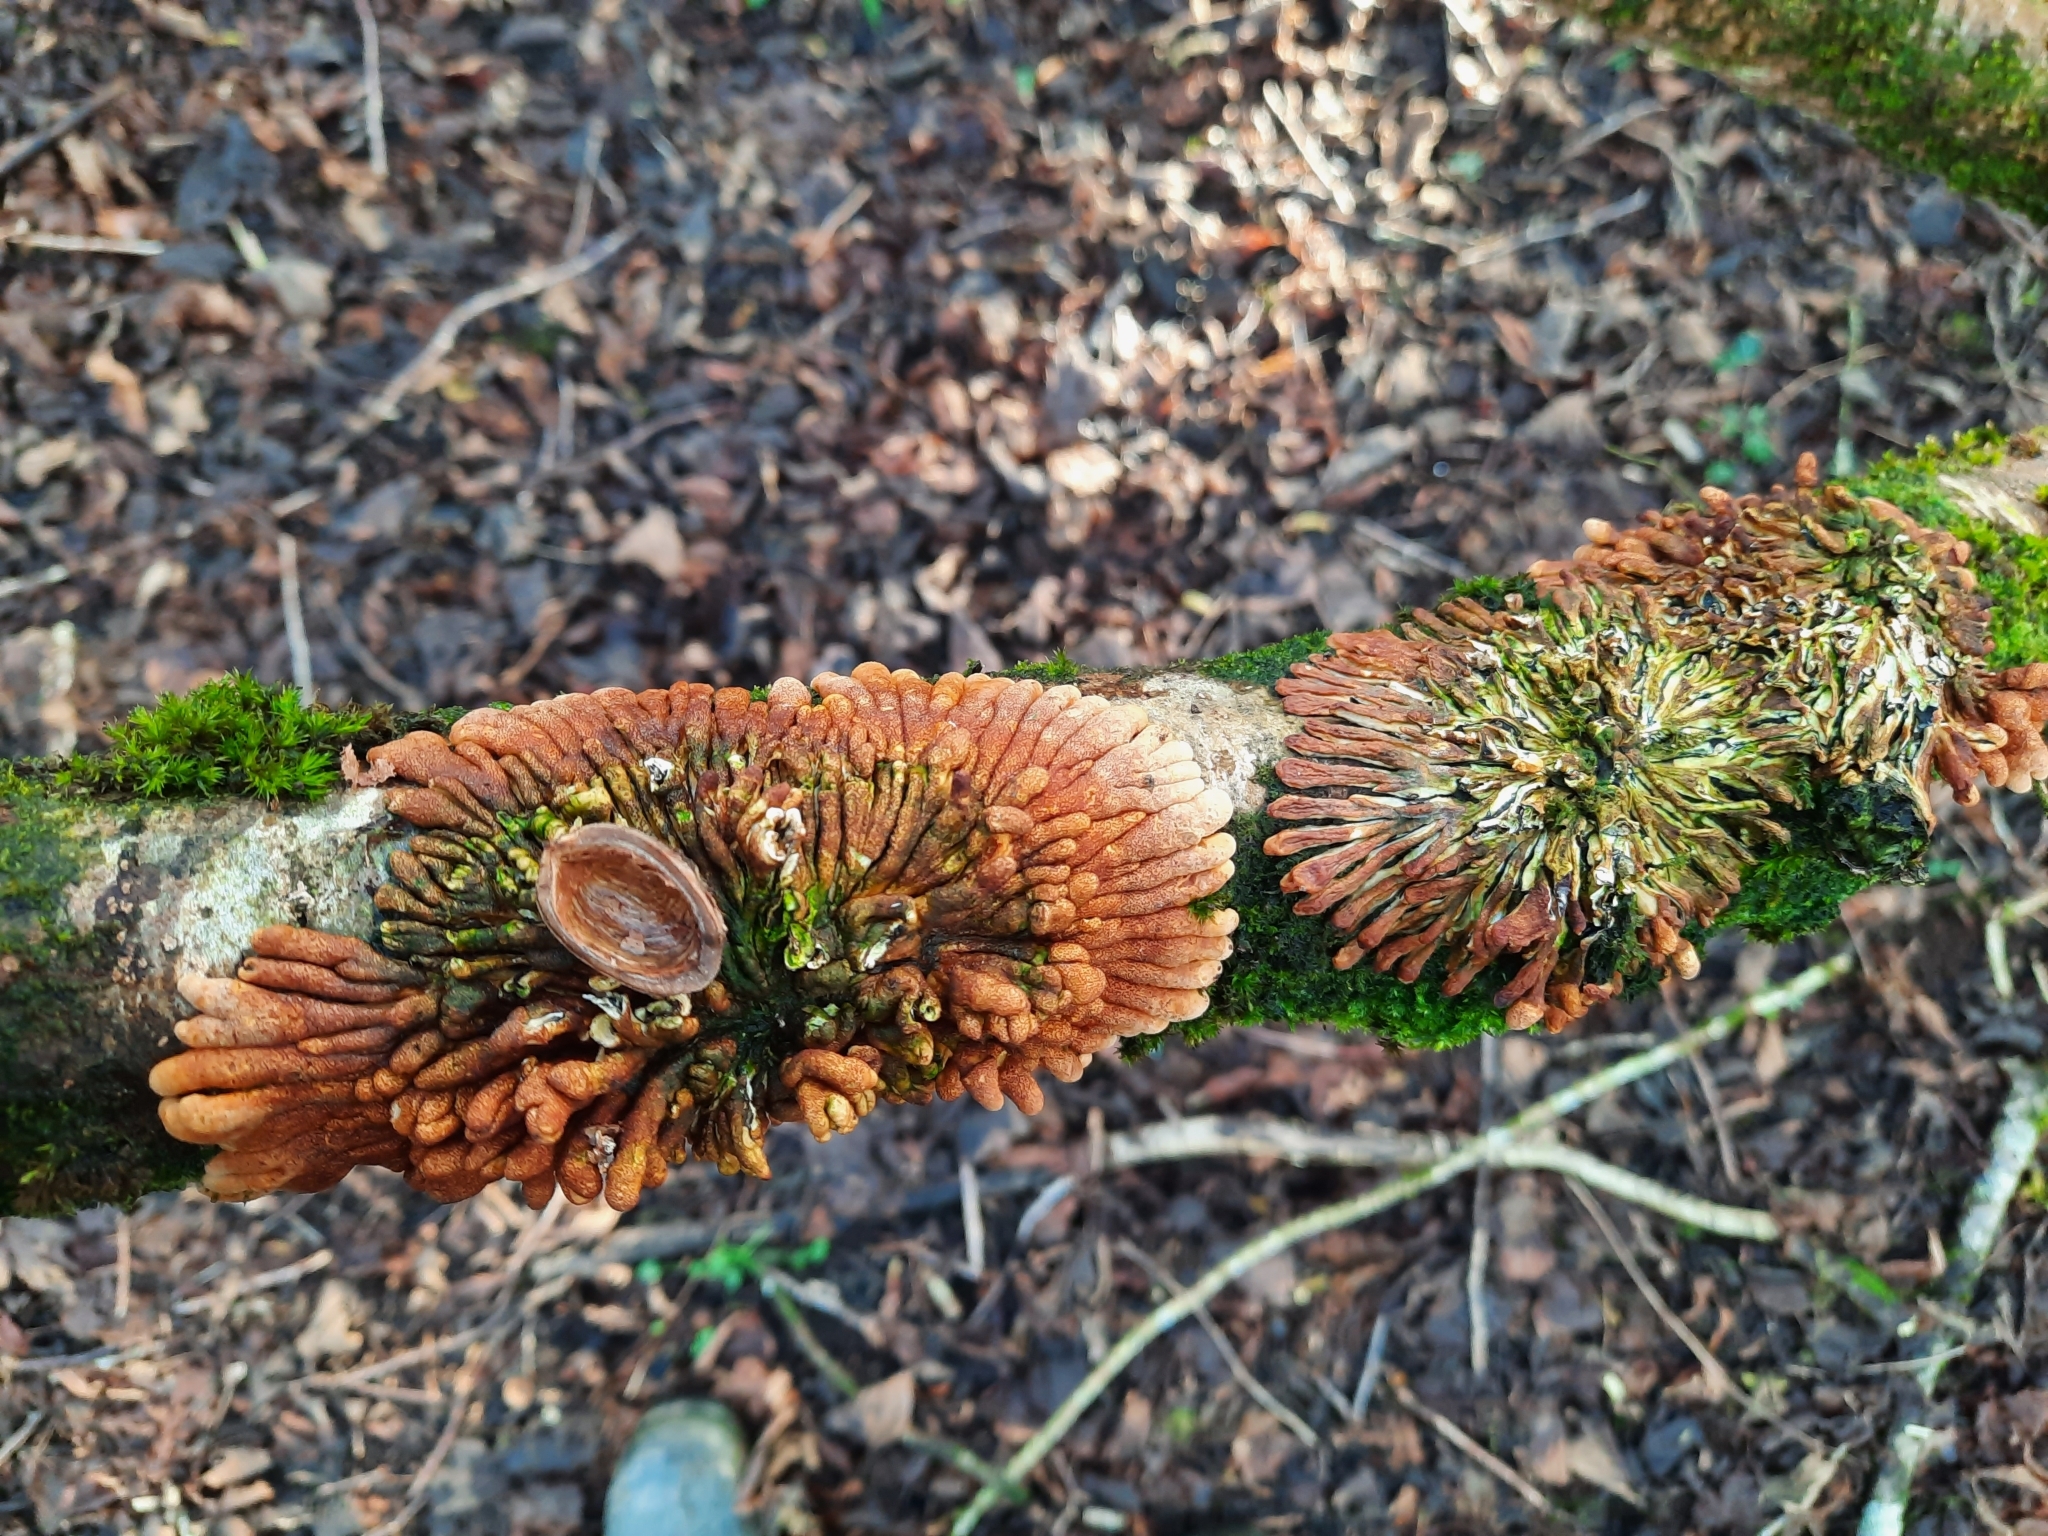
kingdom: Fungi
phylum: Ascomycota
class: Sordariomycetes
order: Hypocreales
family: Hypocreaceae
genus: Hypocreopsis
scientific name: Hypocreopsis rhododendri
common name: Hazel gloves
